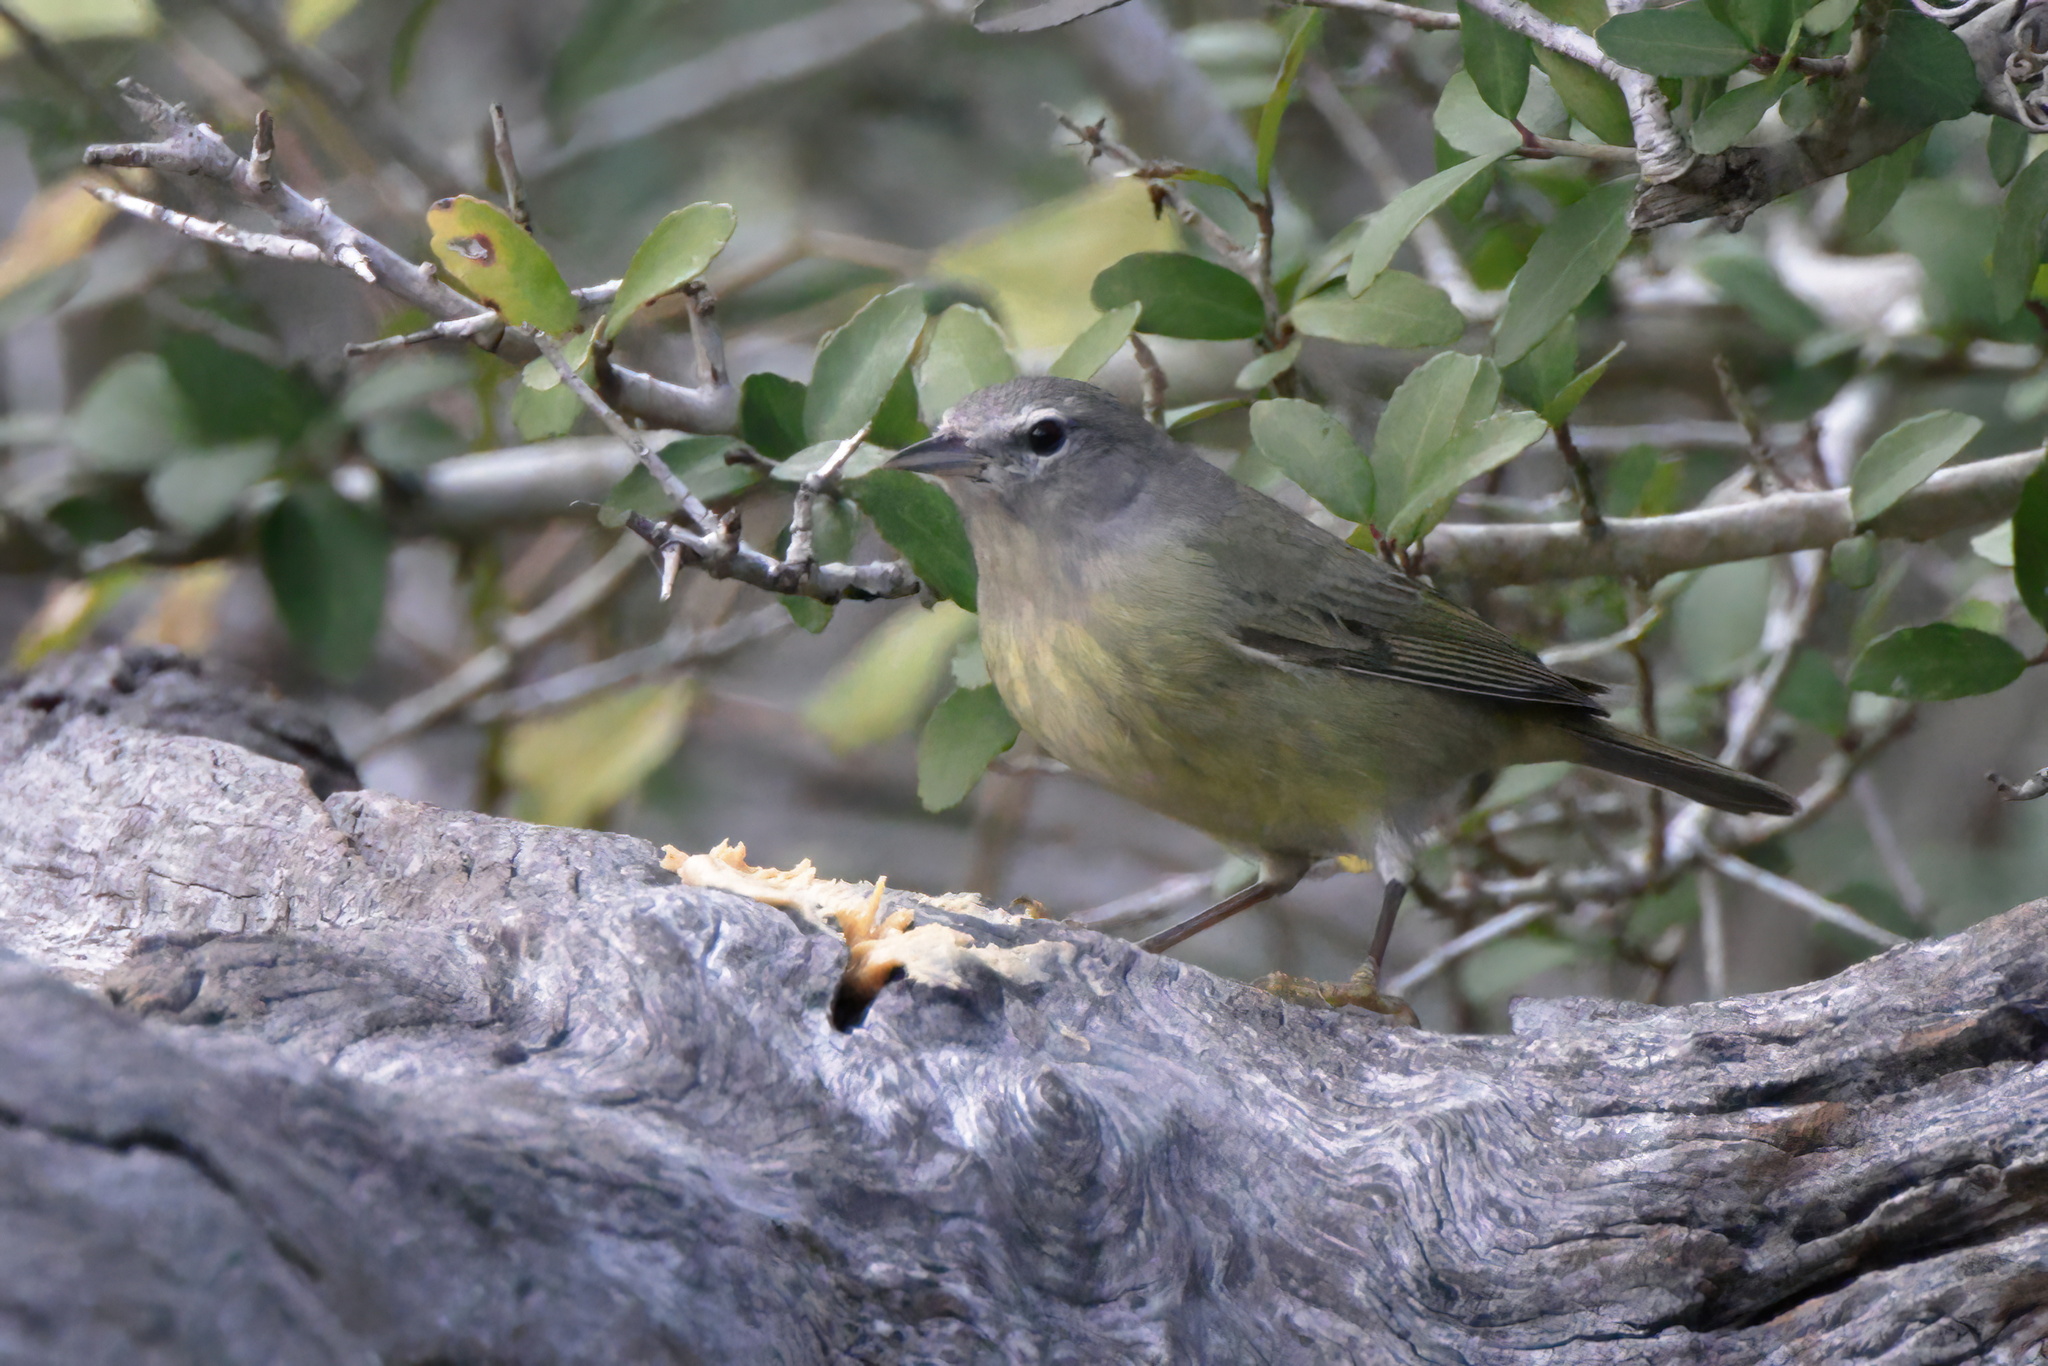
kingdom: Animalia
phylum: Chordata
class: Aves
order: Passeriformes
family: Parulidae
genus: Leiothlypis
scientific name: Leiothlypis celata
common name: Orange-crowned warbler
